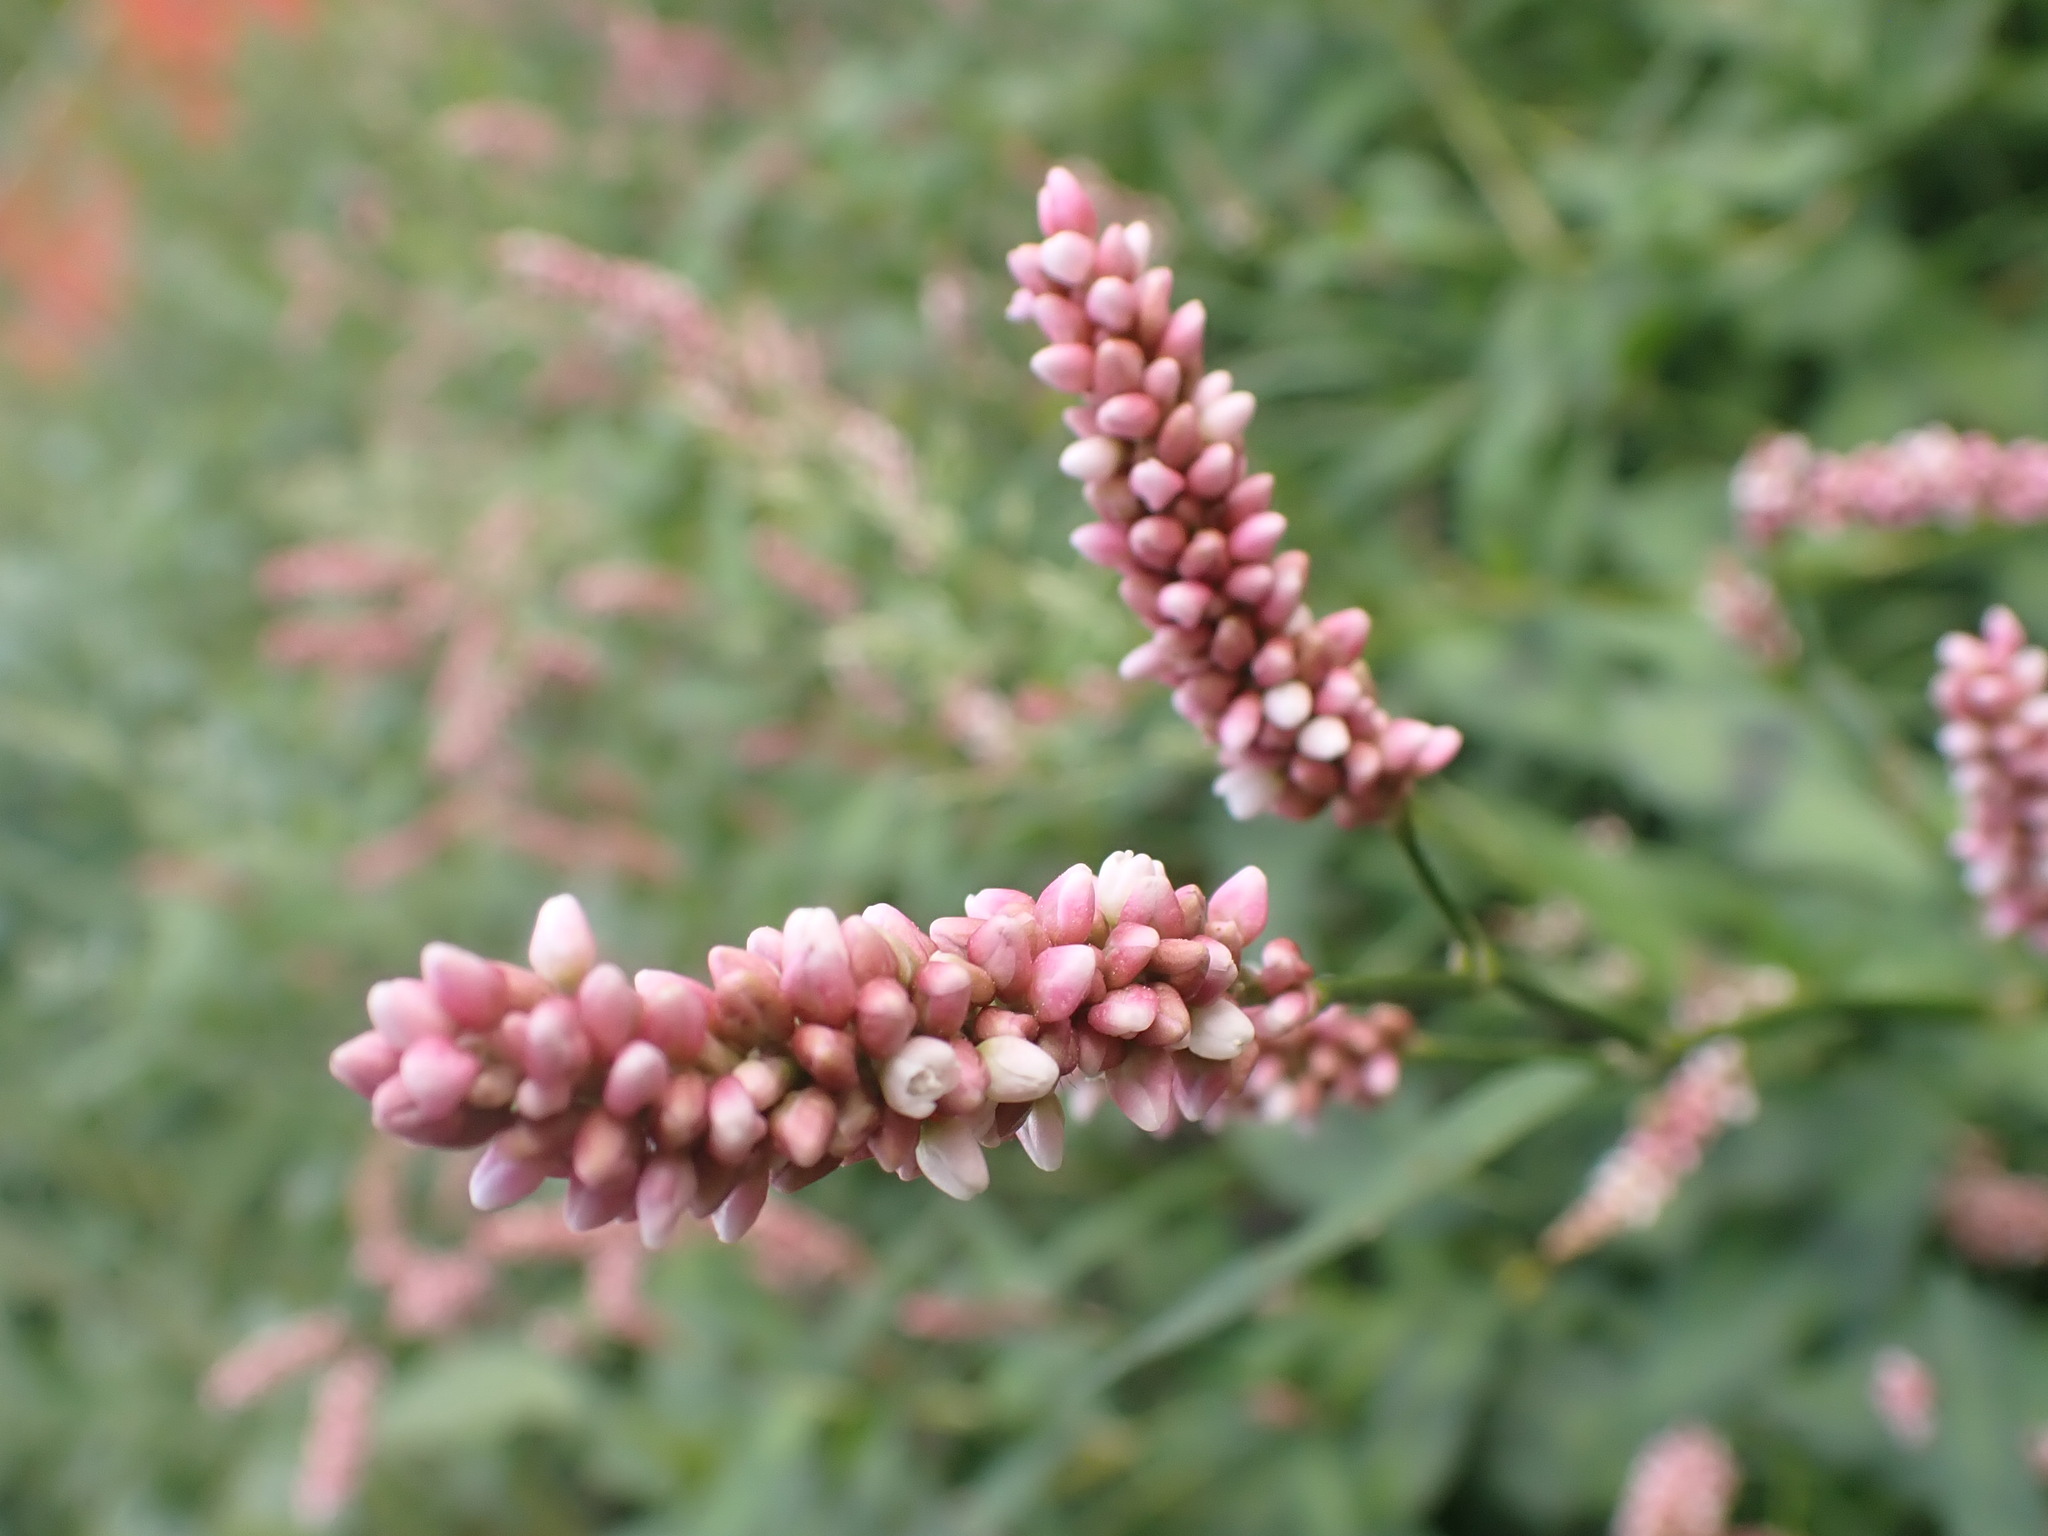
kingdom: Plantae
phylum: Tracheophyta
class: Magnoliopsida
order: Caryophyllales
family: Polygonaceae
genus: Persicaria
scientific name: Persicaria maculosa
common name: Redshank
